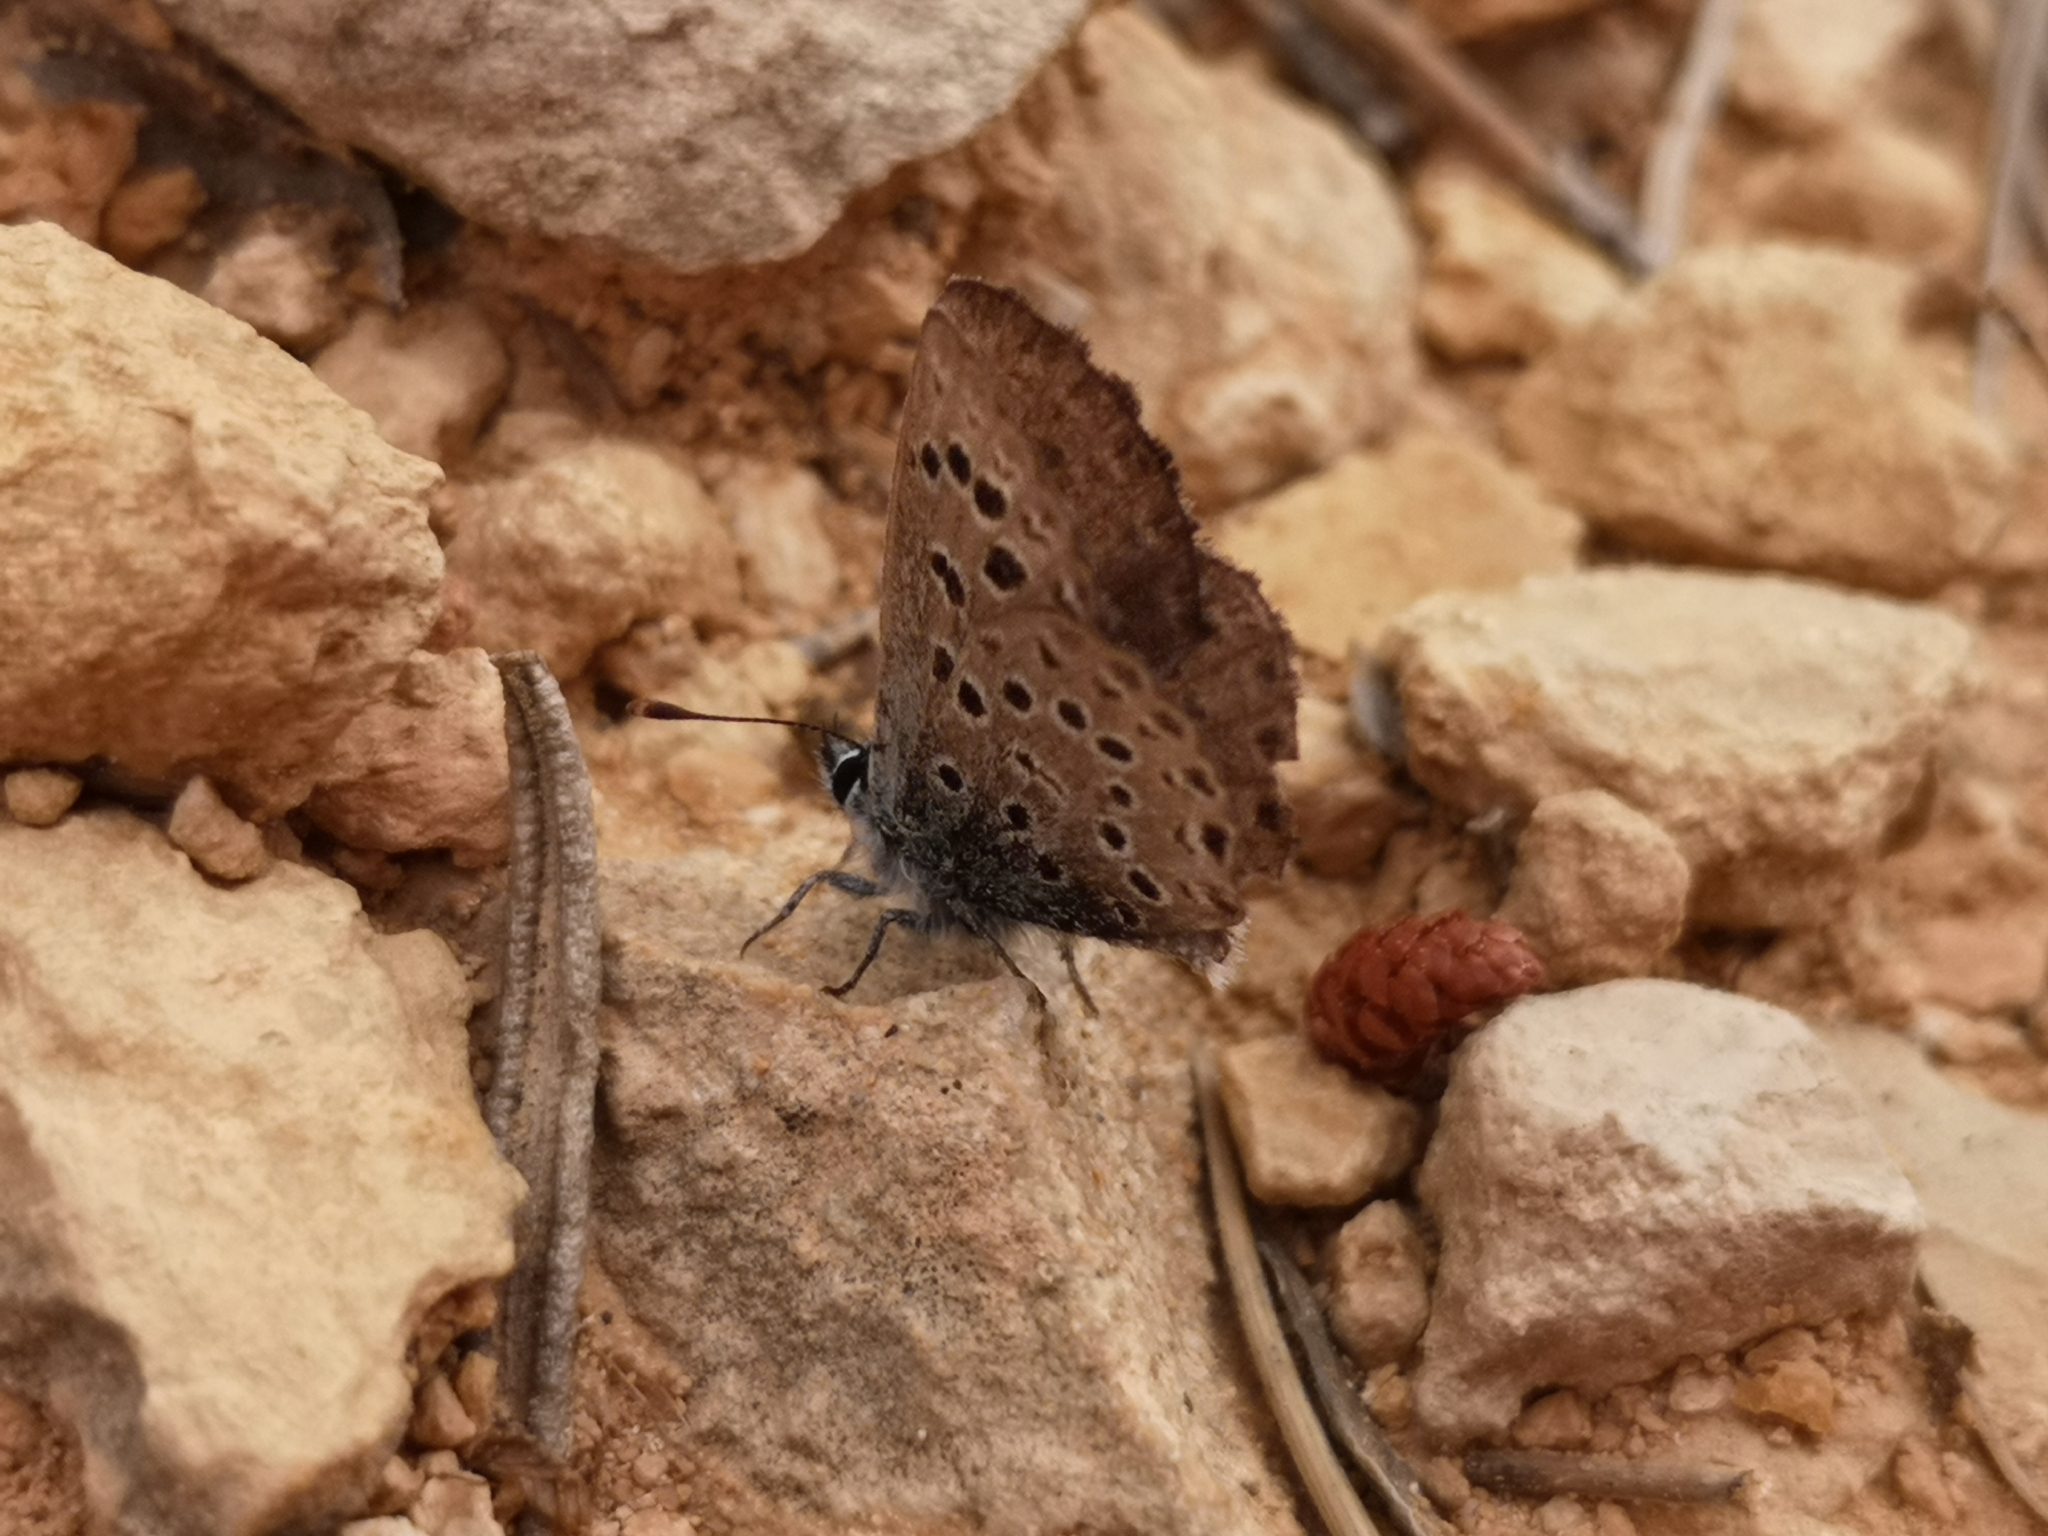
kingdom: Animalia
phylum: Arthropoda
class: Insecta
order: Lepidoptera
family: Lycaenidae
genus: Pseudophilotes
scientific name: Pseudophilotes baton
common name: Baton blue
